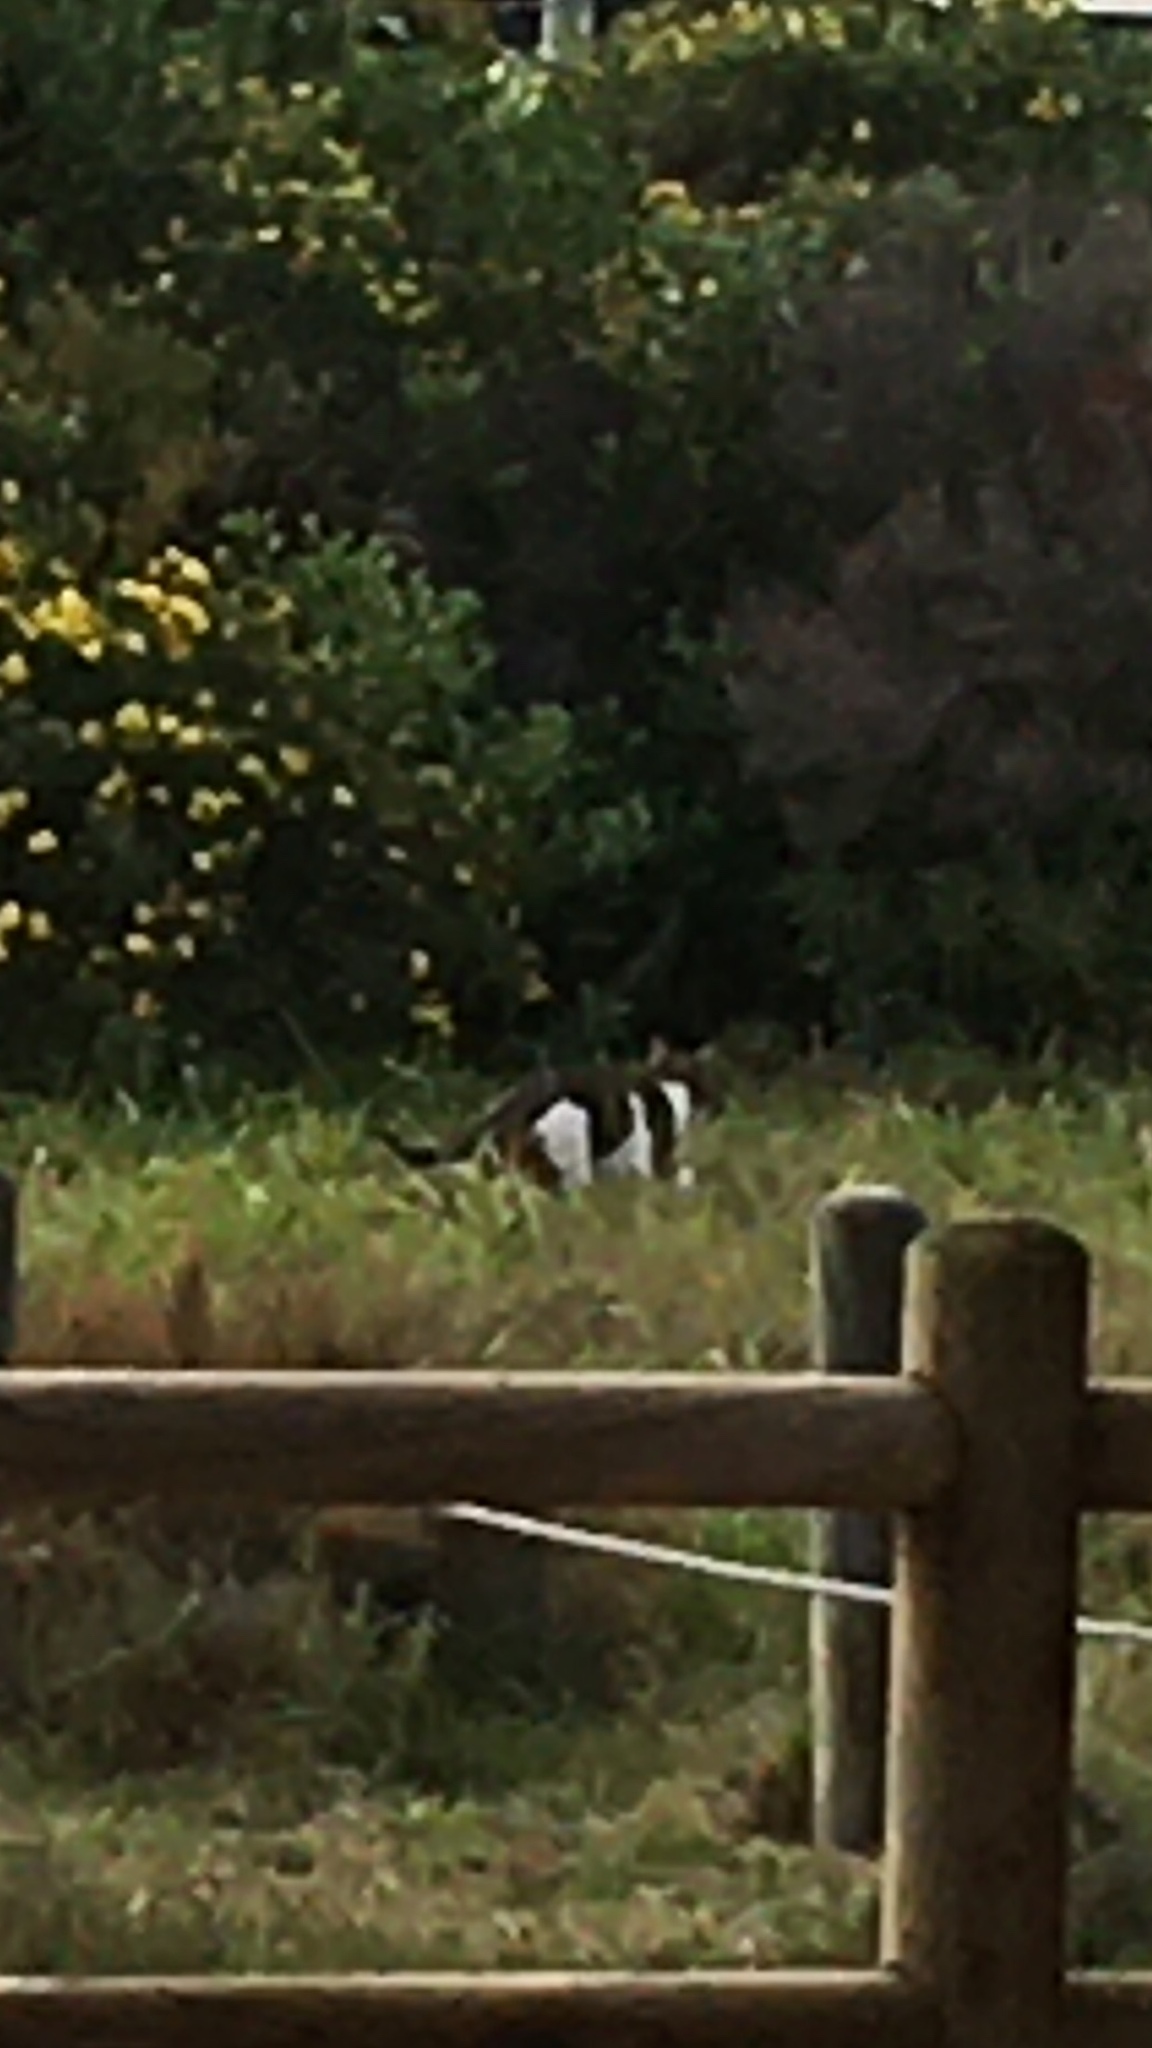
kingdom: Animalia
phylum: Chordata
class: Mammalia
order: Carnivora
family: Felidae
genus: Felis
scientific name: Felis catus
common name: Domestic cat
